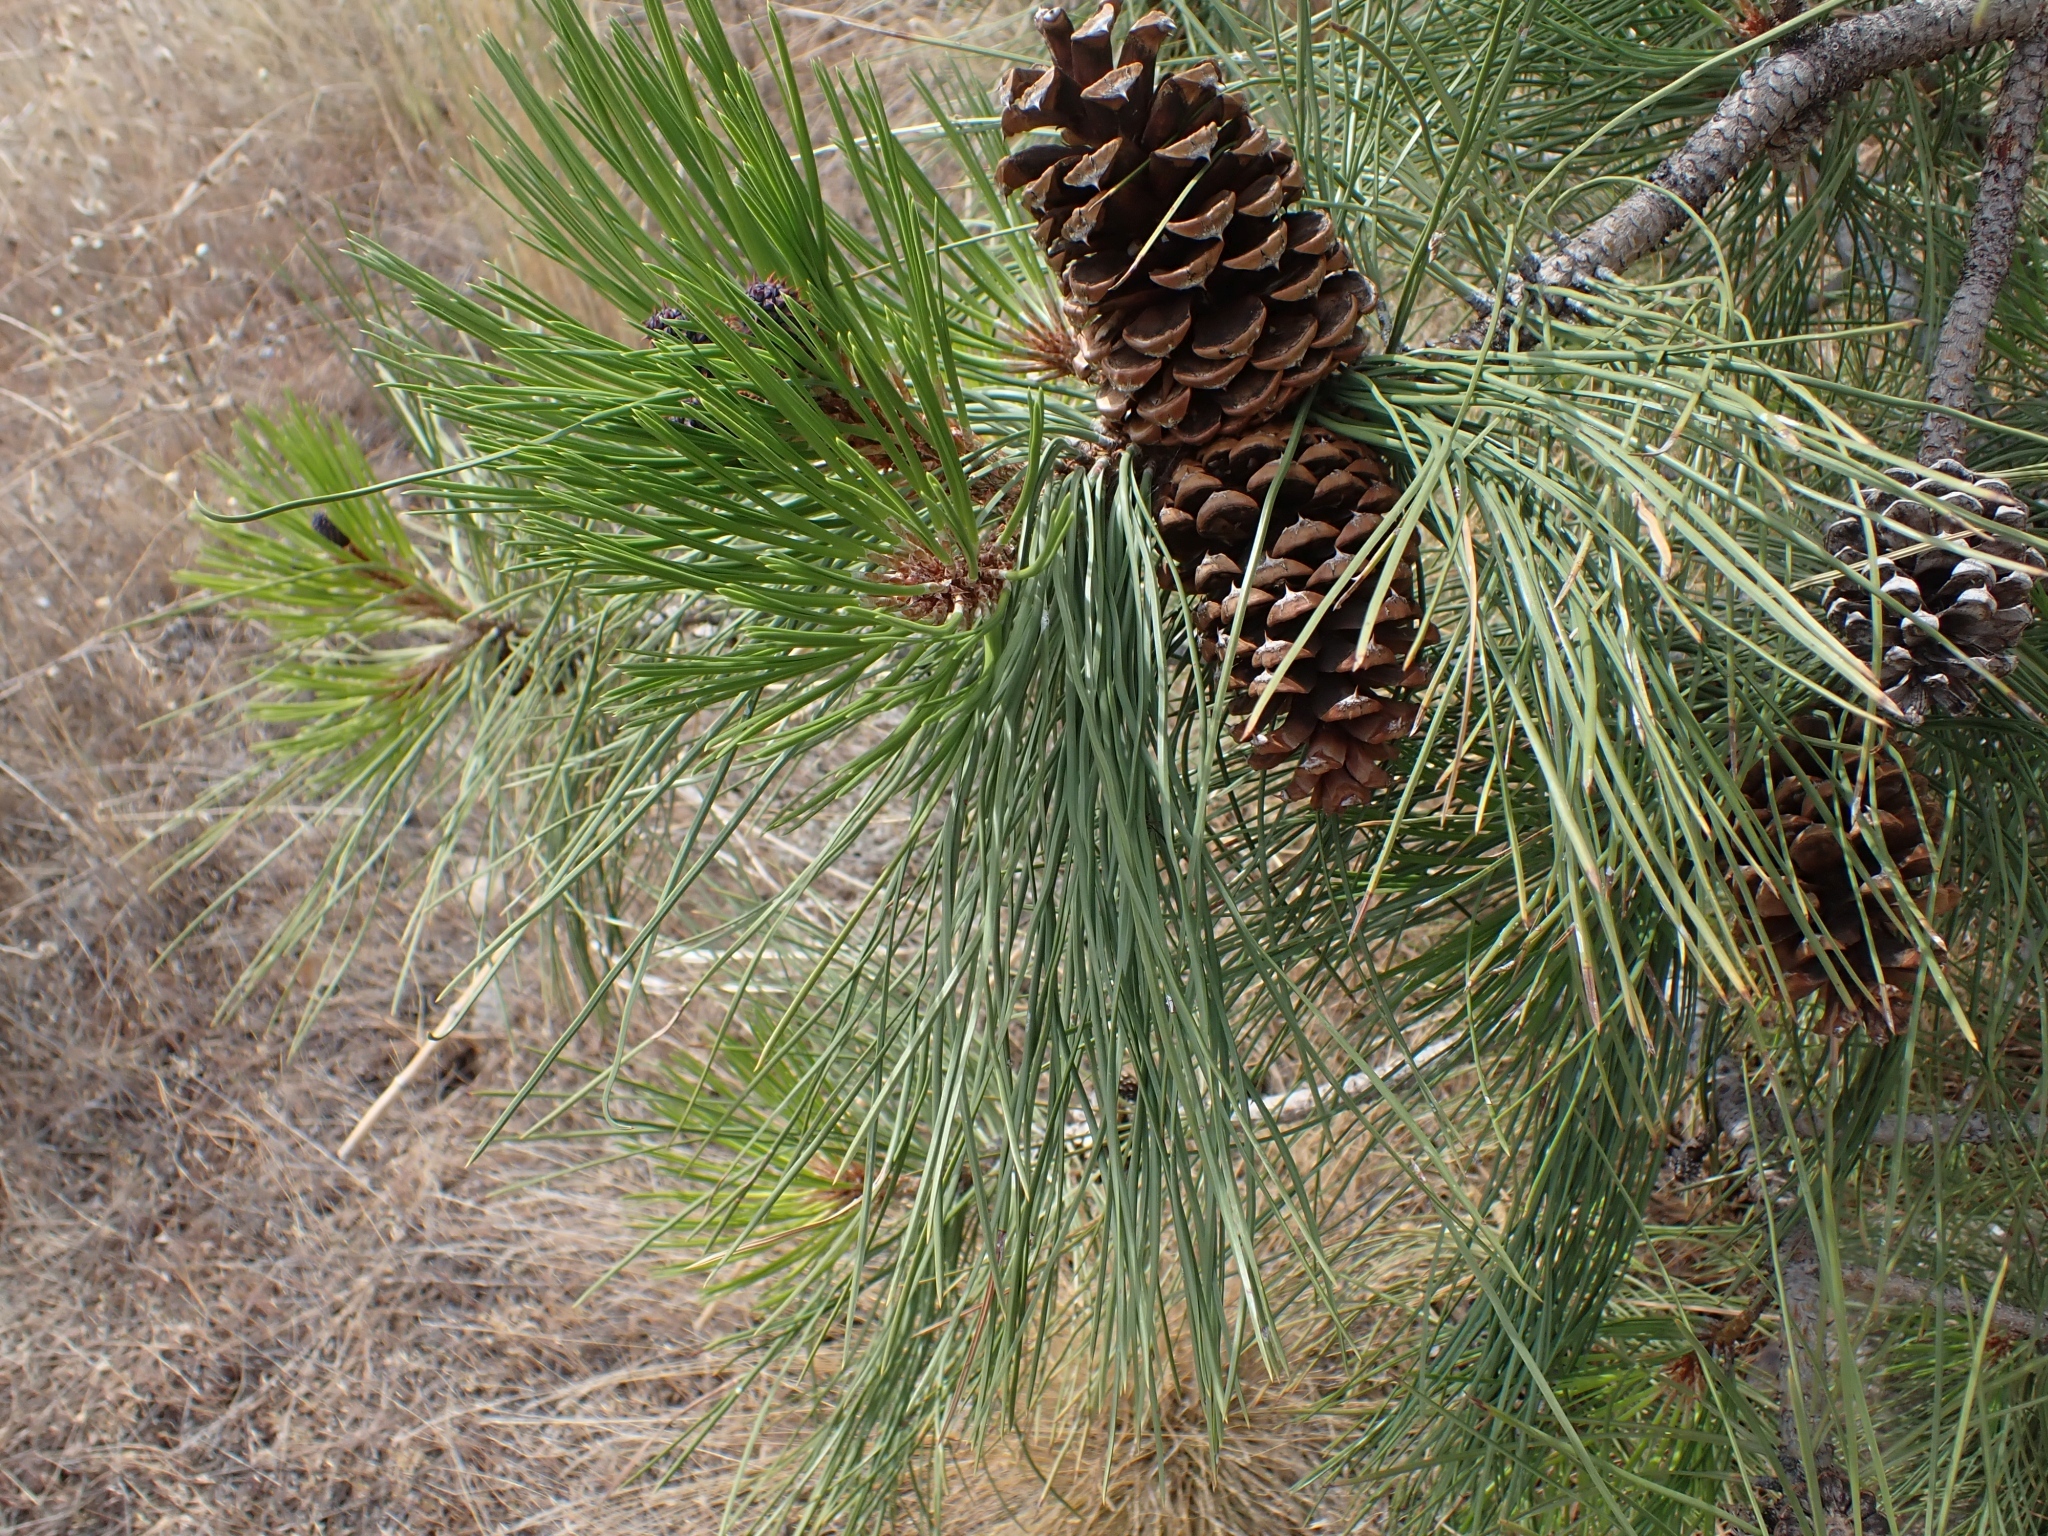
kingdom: Plantae
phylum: Tracheophyta
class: Pinopsida
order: Pinales
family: Pinaceae
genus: Pinus
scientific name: Pinus ponderosa
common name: Western yellow-pine
